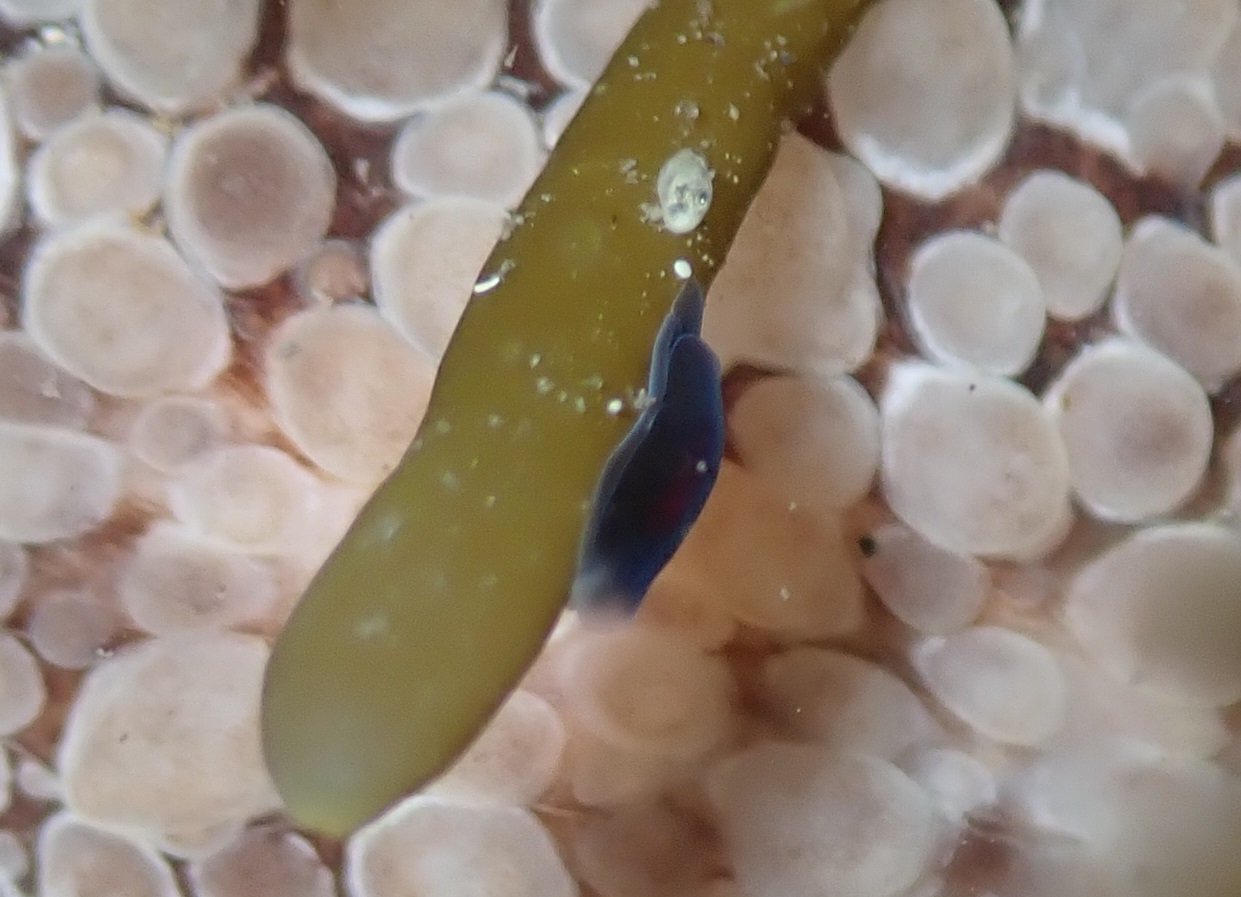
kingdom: Animalia
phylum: Mollusca
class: Gastropoda
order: Runcinida
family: Runcinidae
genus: Runcina
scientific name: Runcina katipoides
